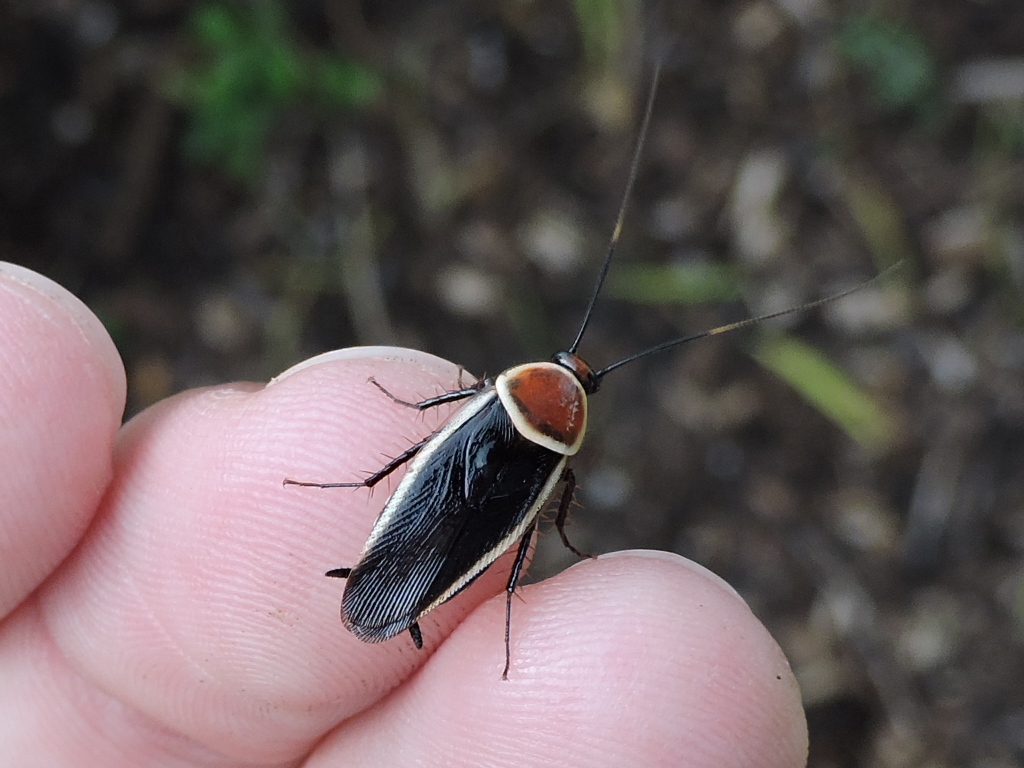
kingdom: Animalia
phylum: Arthropoda
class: Insecta
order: Blattodea
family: Ectobiidae
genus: Pseudomops
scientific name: Pseudomops septentrionalis
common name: Pale-bordered field cockroach
